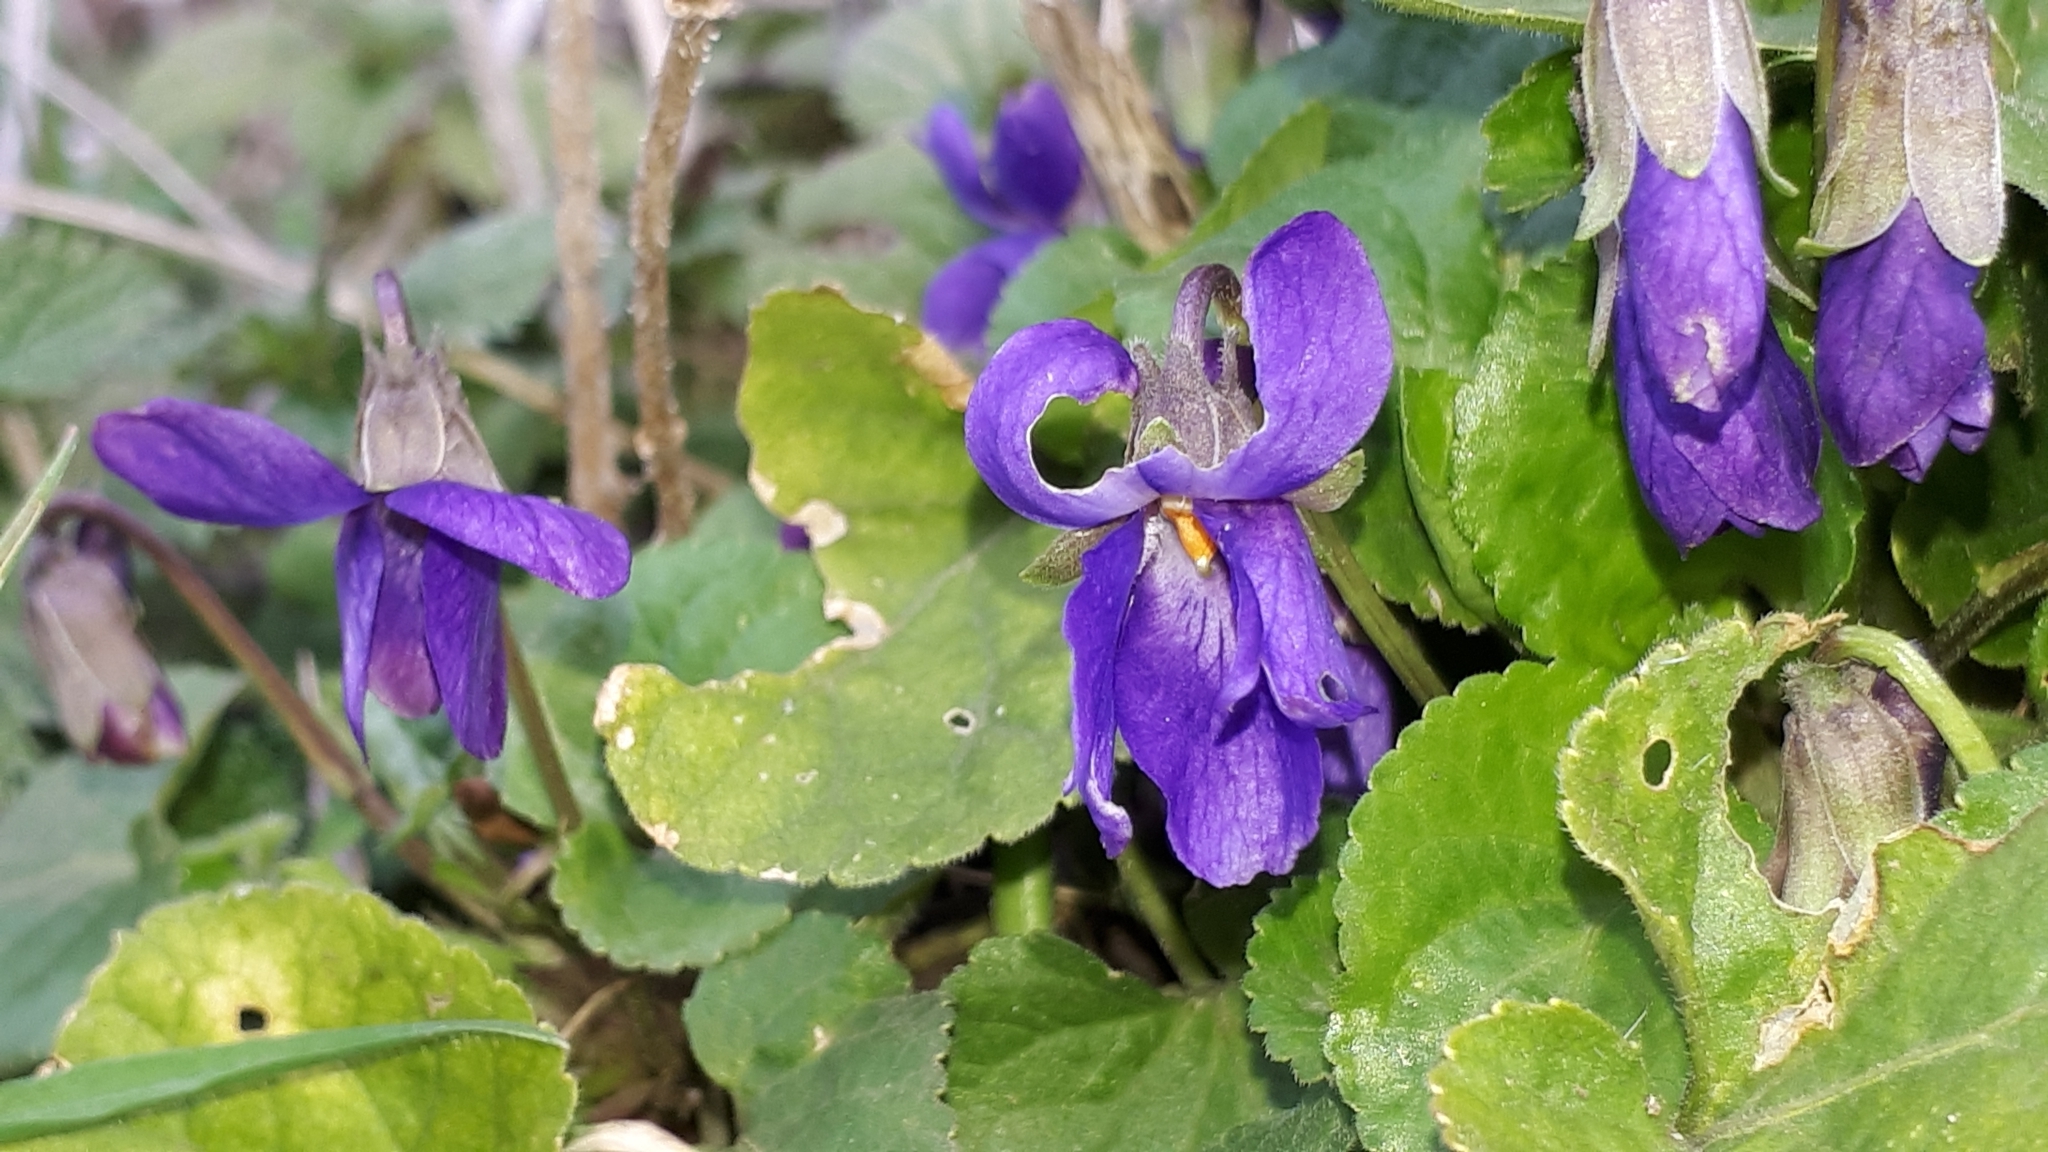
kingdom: Plantae
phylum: Tracheophyta
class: Magnoliopsida
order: Malpighiales
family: Violaceae
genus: Viola
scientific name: Viola odorata
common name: Sweet violet
